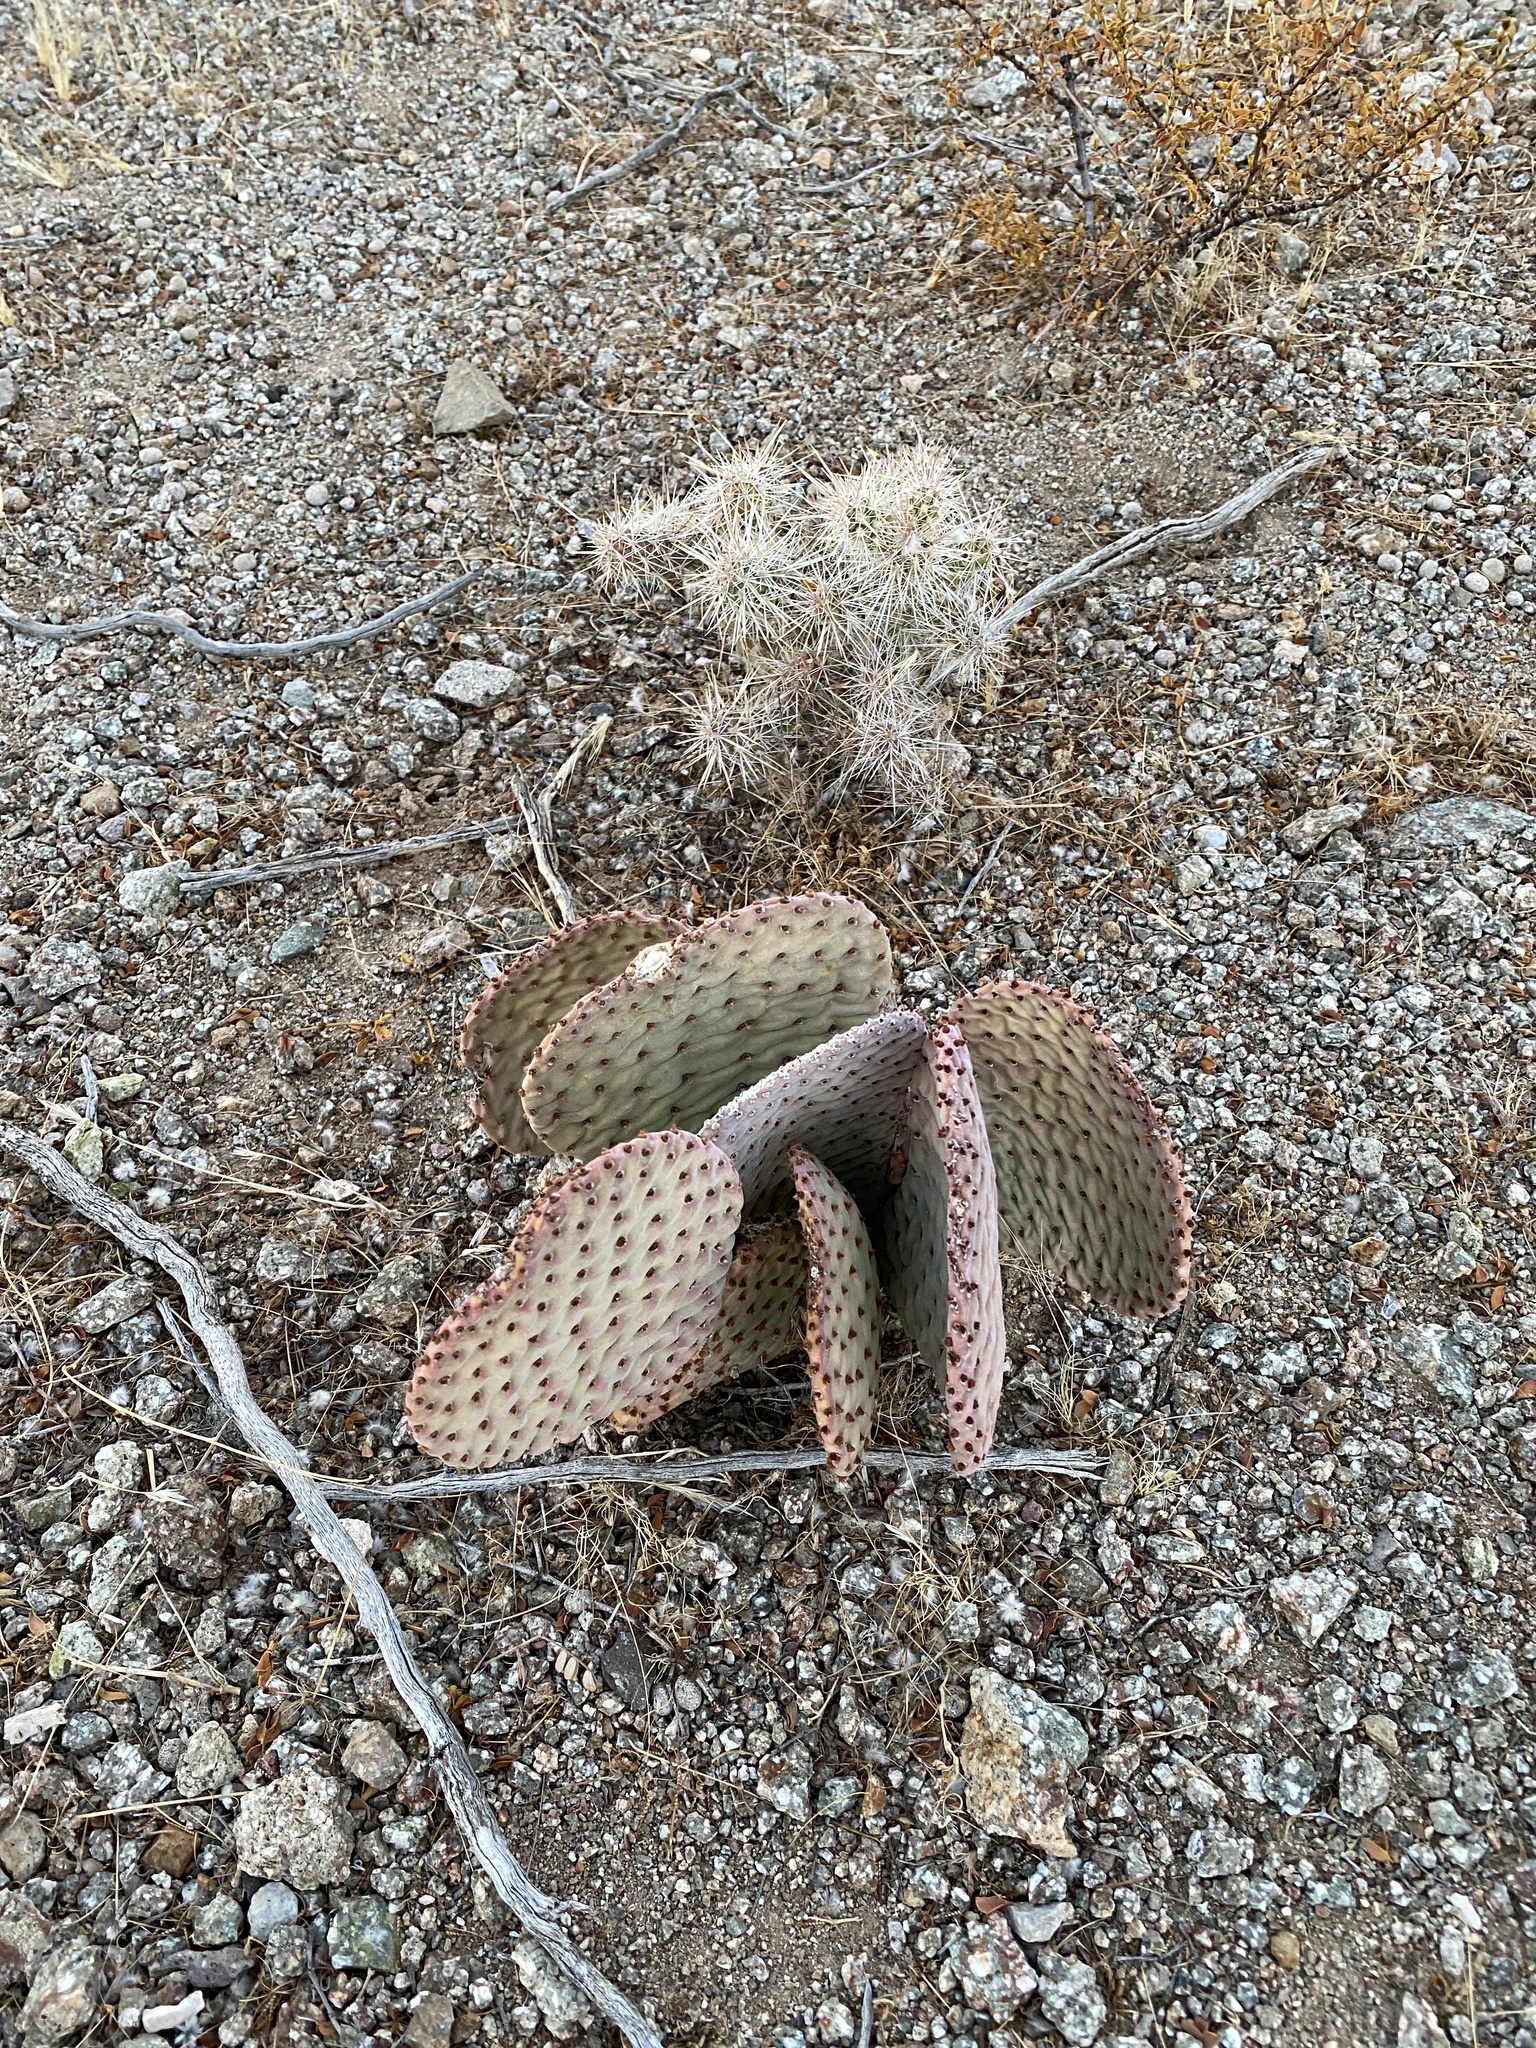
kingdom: Plantae
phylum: Tracheophyta
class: Magnoliopsida
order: Caryophyllales
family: Cactaceae
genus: Opuntia
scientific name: Opuntia basilaris
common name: Beavertail prickly-pear
